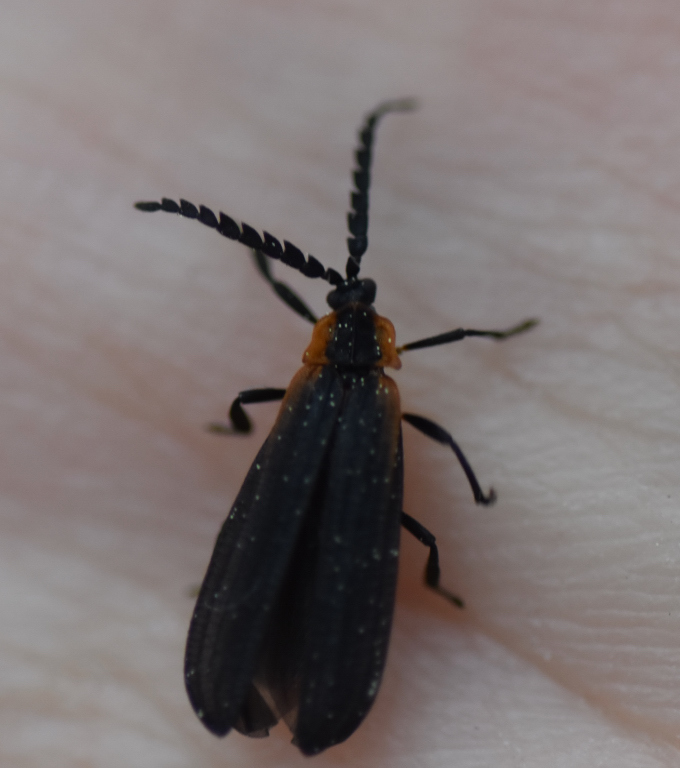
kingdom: Animalia
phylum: Arthropoda
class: Insecta
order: Coleoptera
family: Lycidae
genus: Leptoceletes
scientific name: Leptoceletes basalis
